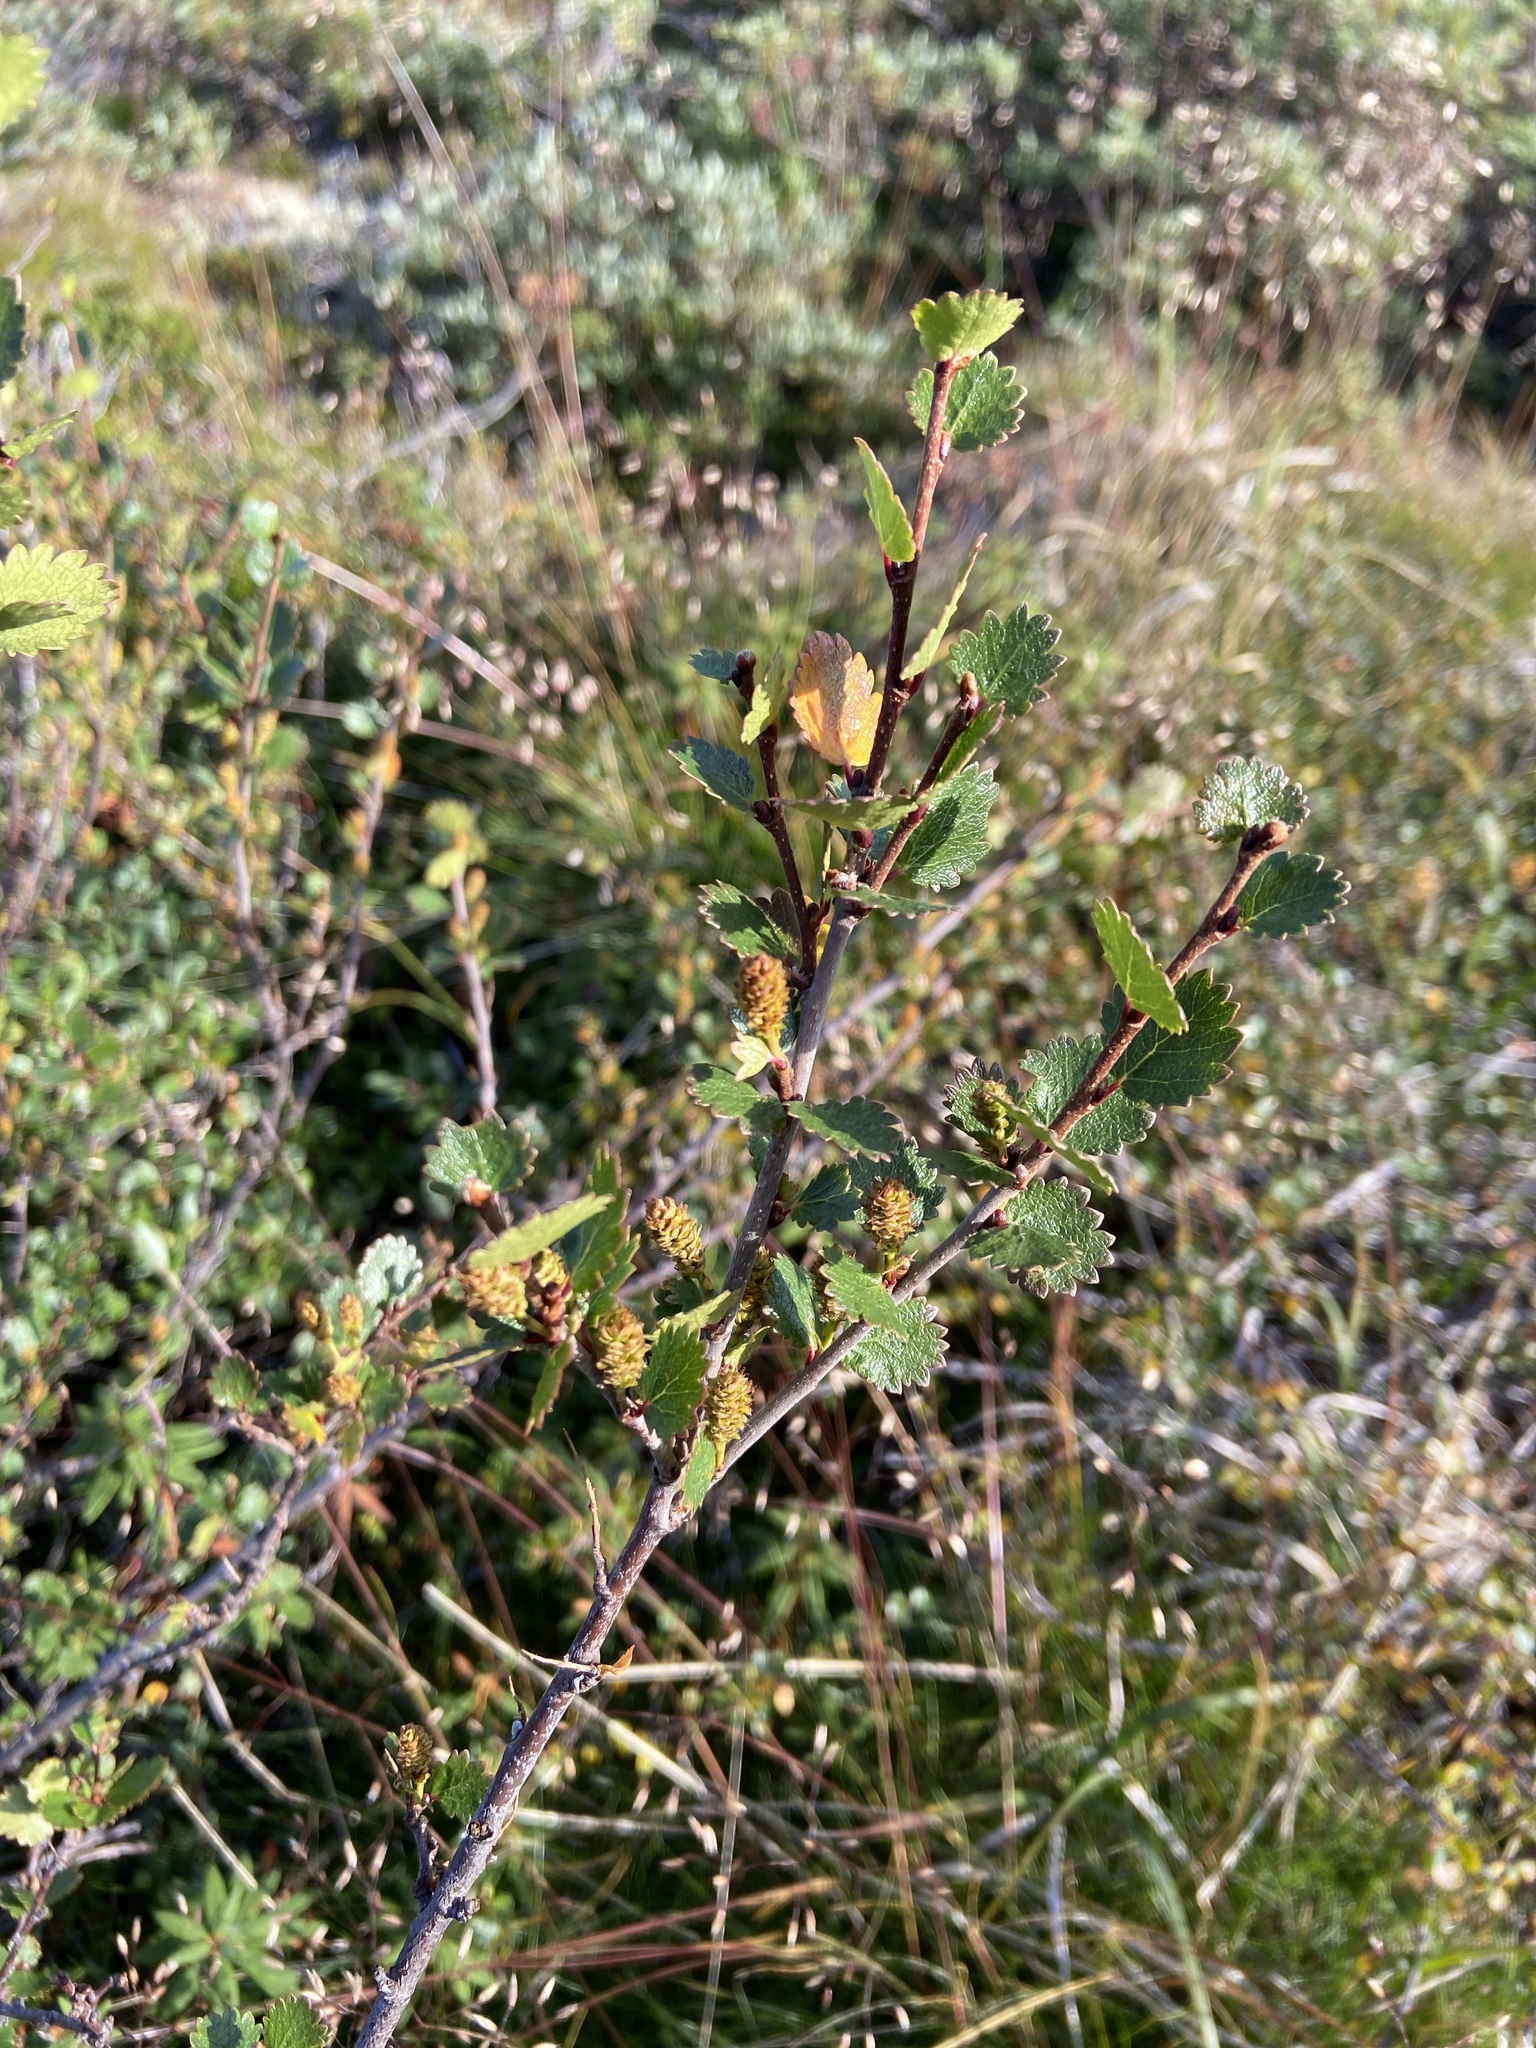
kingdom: Plantae
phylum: Tracheophyta
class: Magnoliopsida
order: Fagales
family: Betulaceae
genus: Betula
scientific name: Betula nana
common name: Arctic dwarf birch
